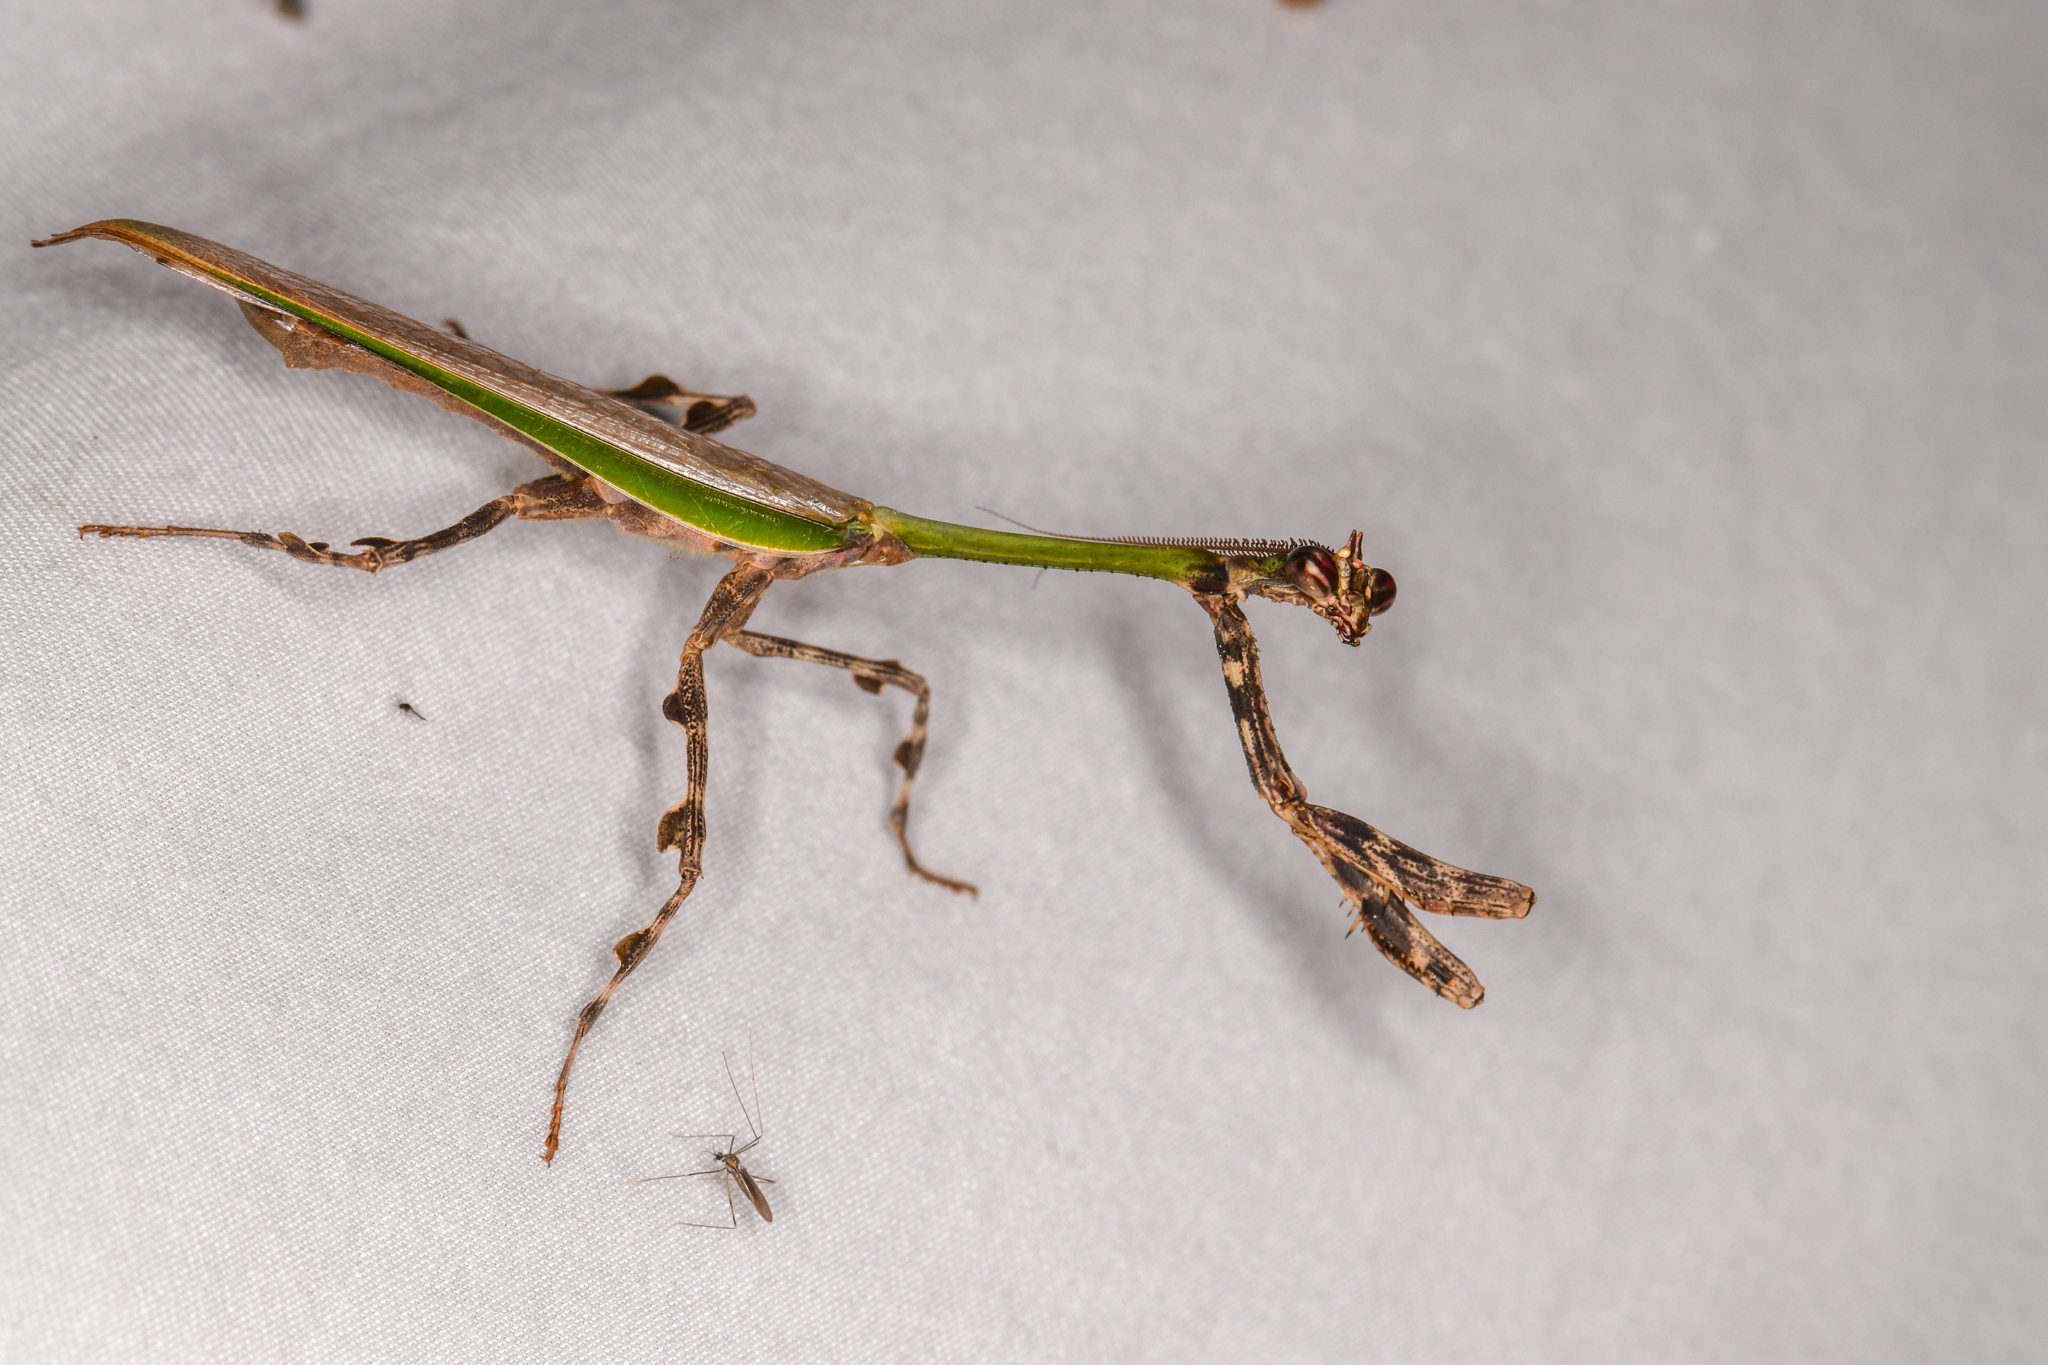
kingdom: Animalia
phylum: Arthropoda
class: Insecta
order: Mantodea
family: Mantidae
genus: Vates
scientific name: Vates pectinicornis
